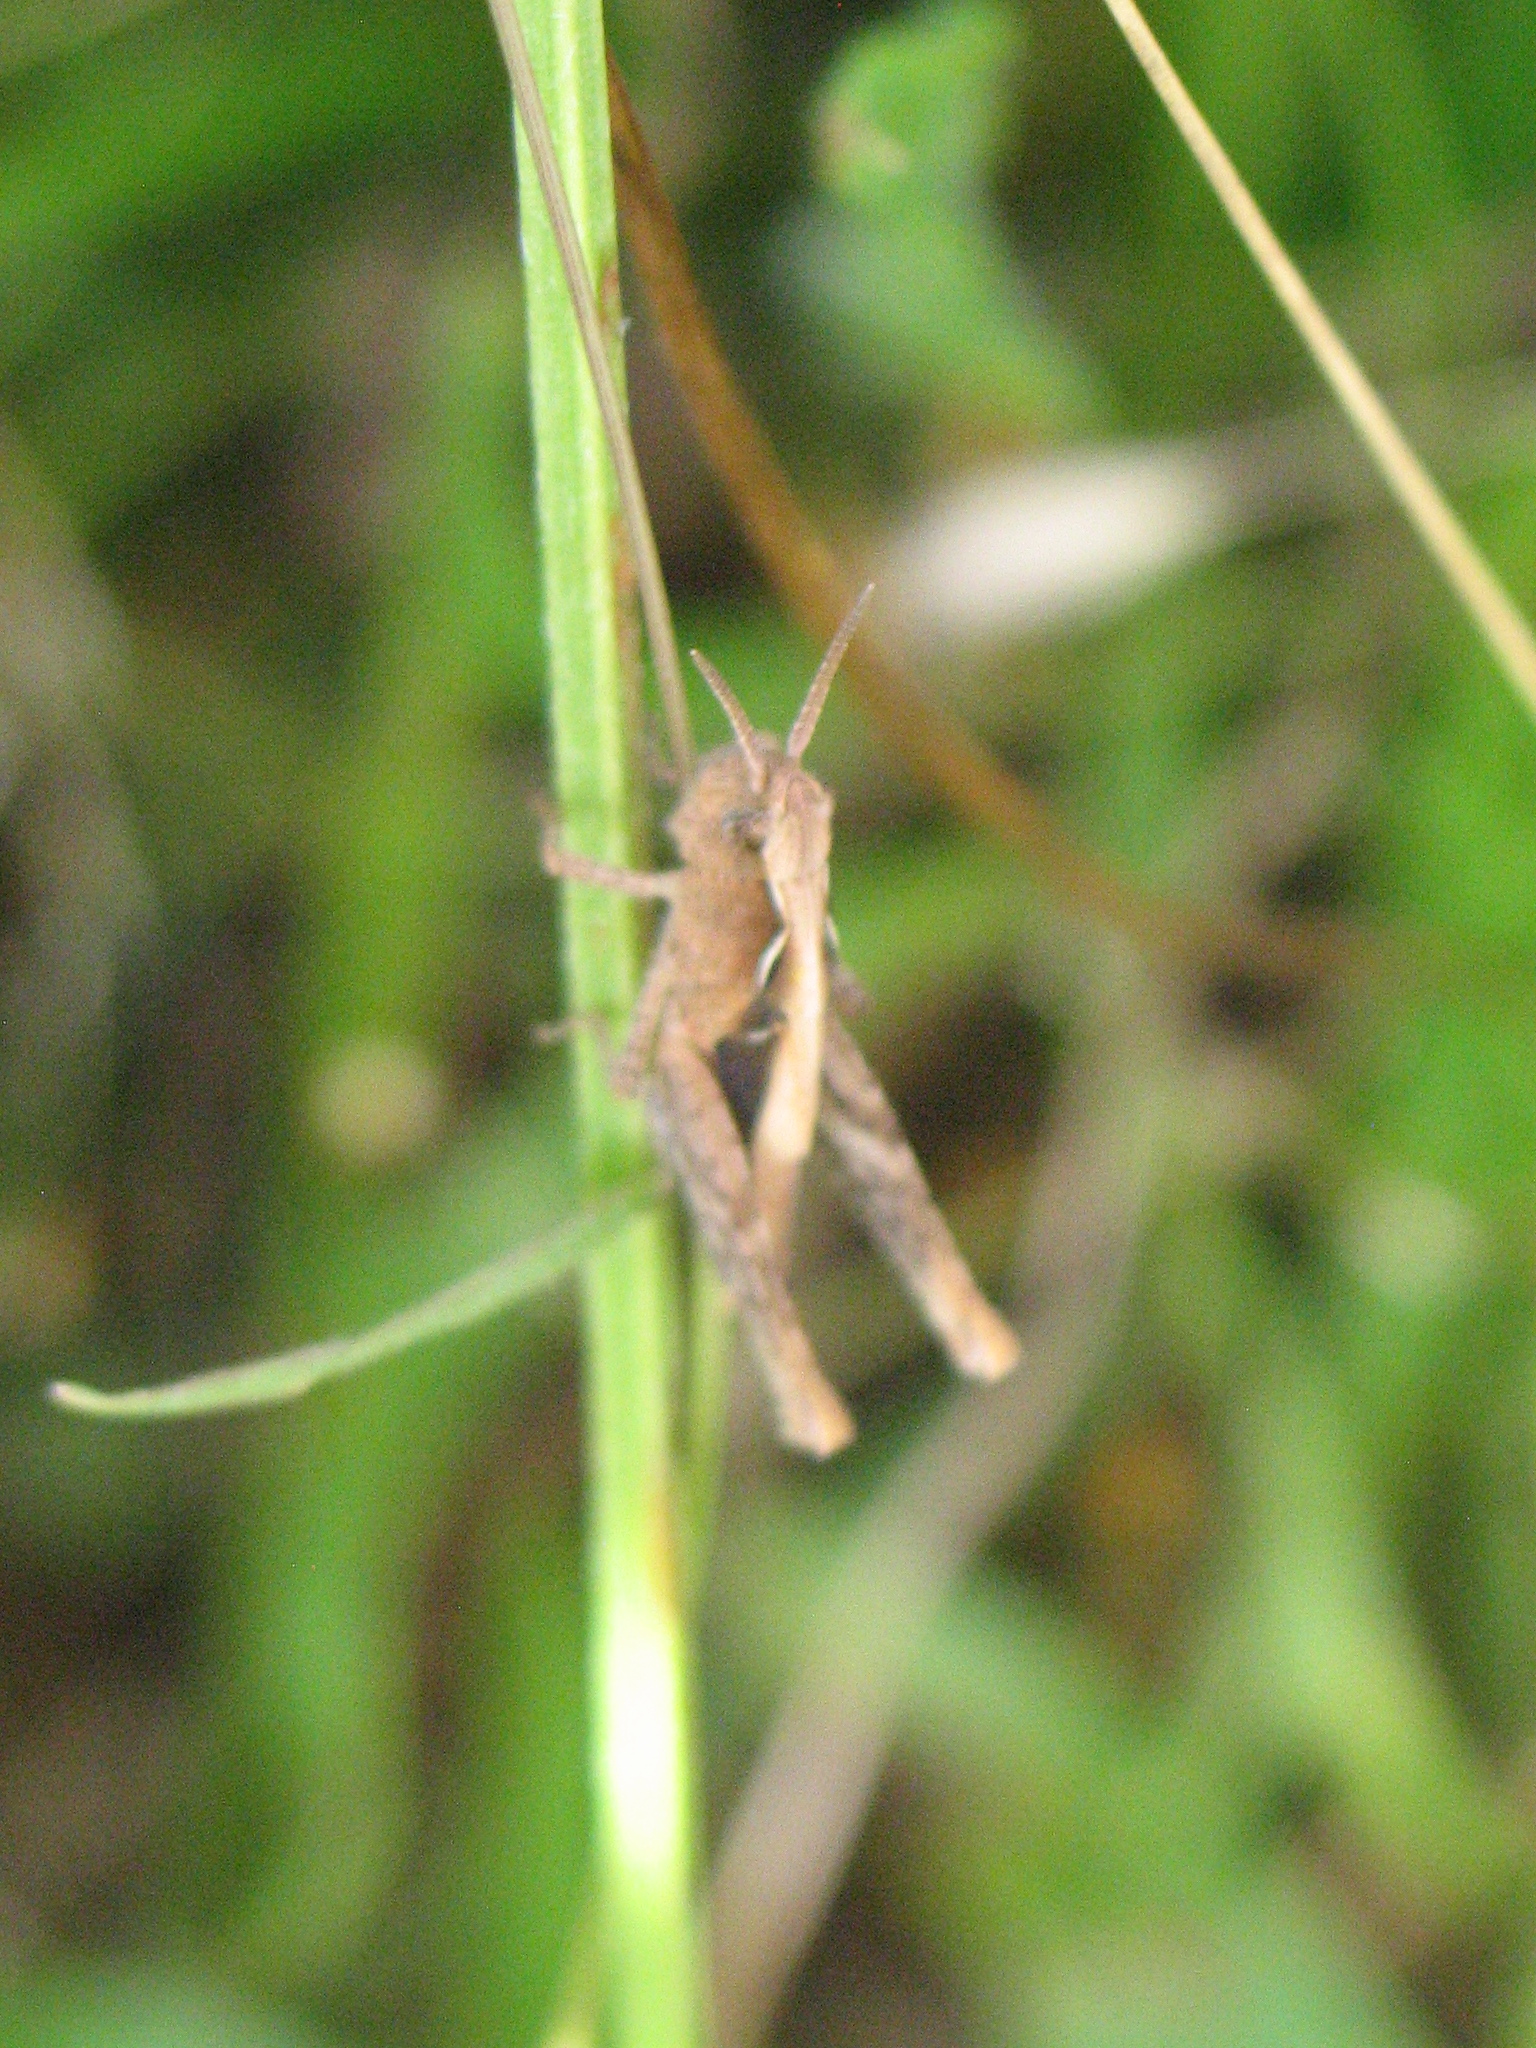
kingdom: Animalia
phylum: Arthropoda
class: Insecta
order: Orthoptera
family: Acrididae
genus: Chorthippus
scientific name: Chorthippus brunneus
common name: Field grasshopper
